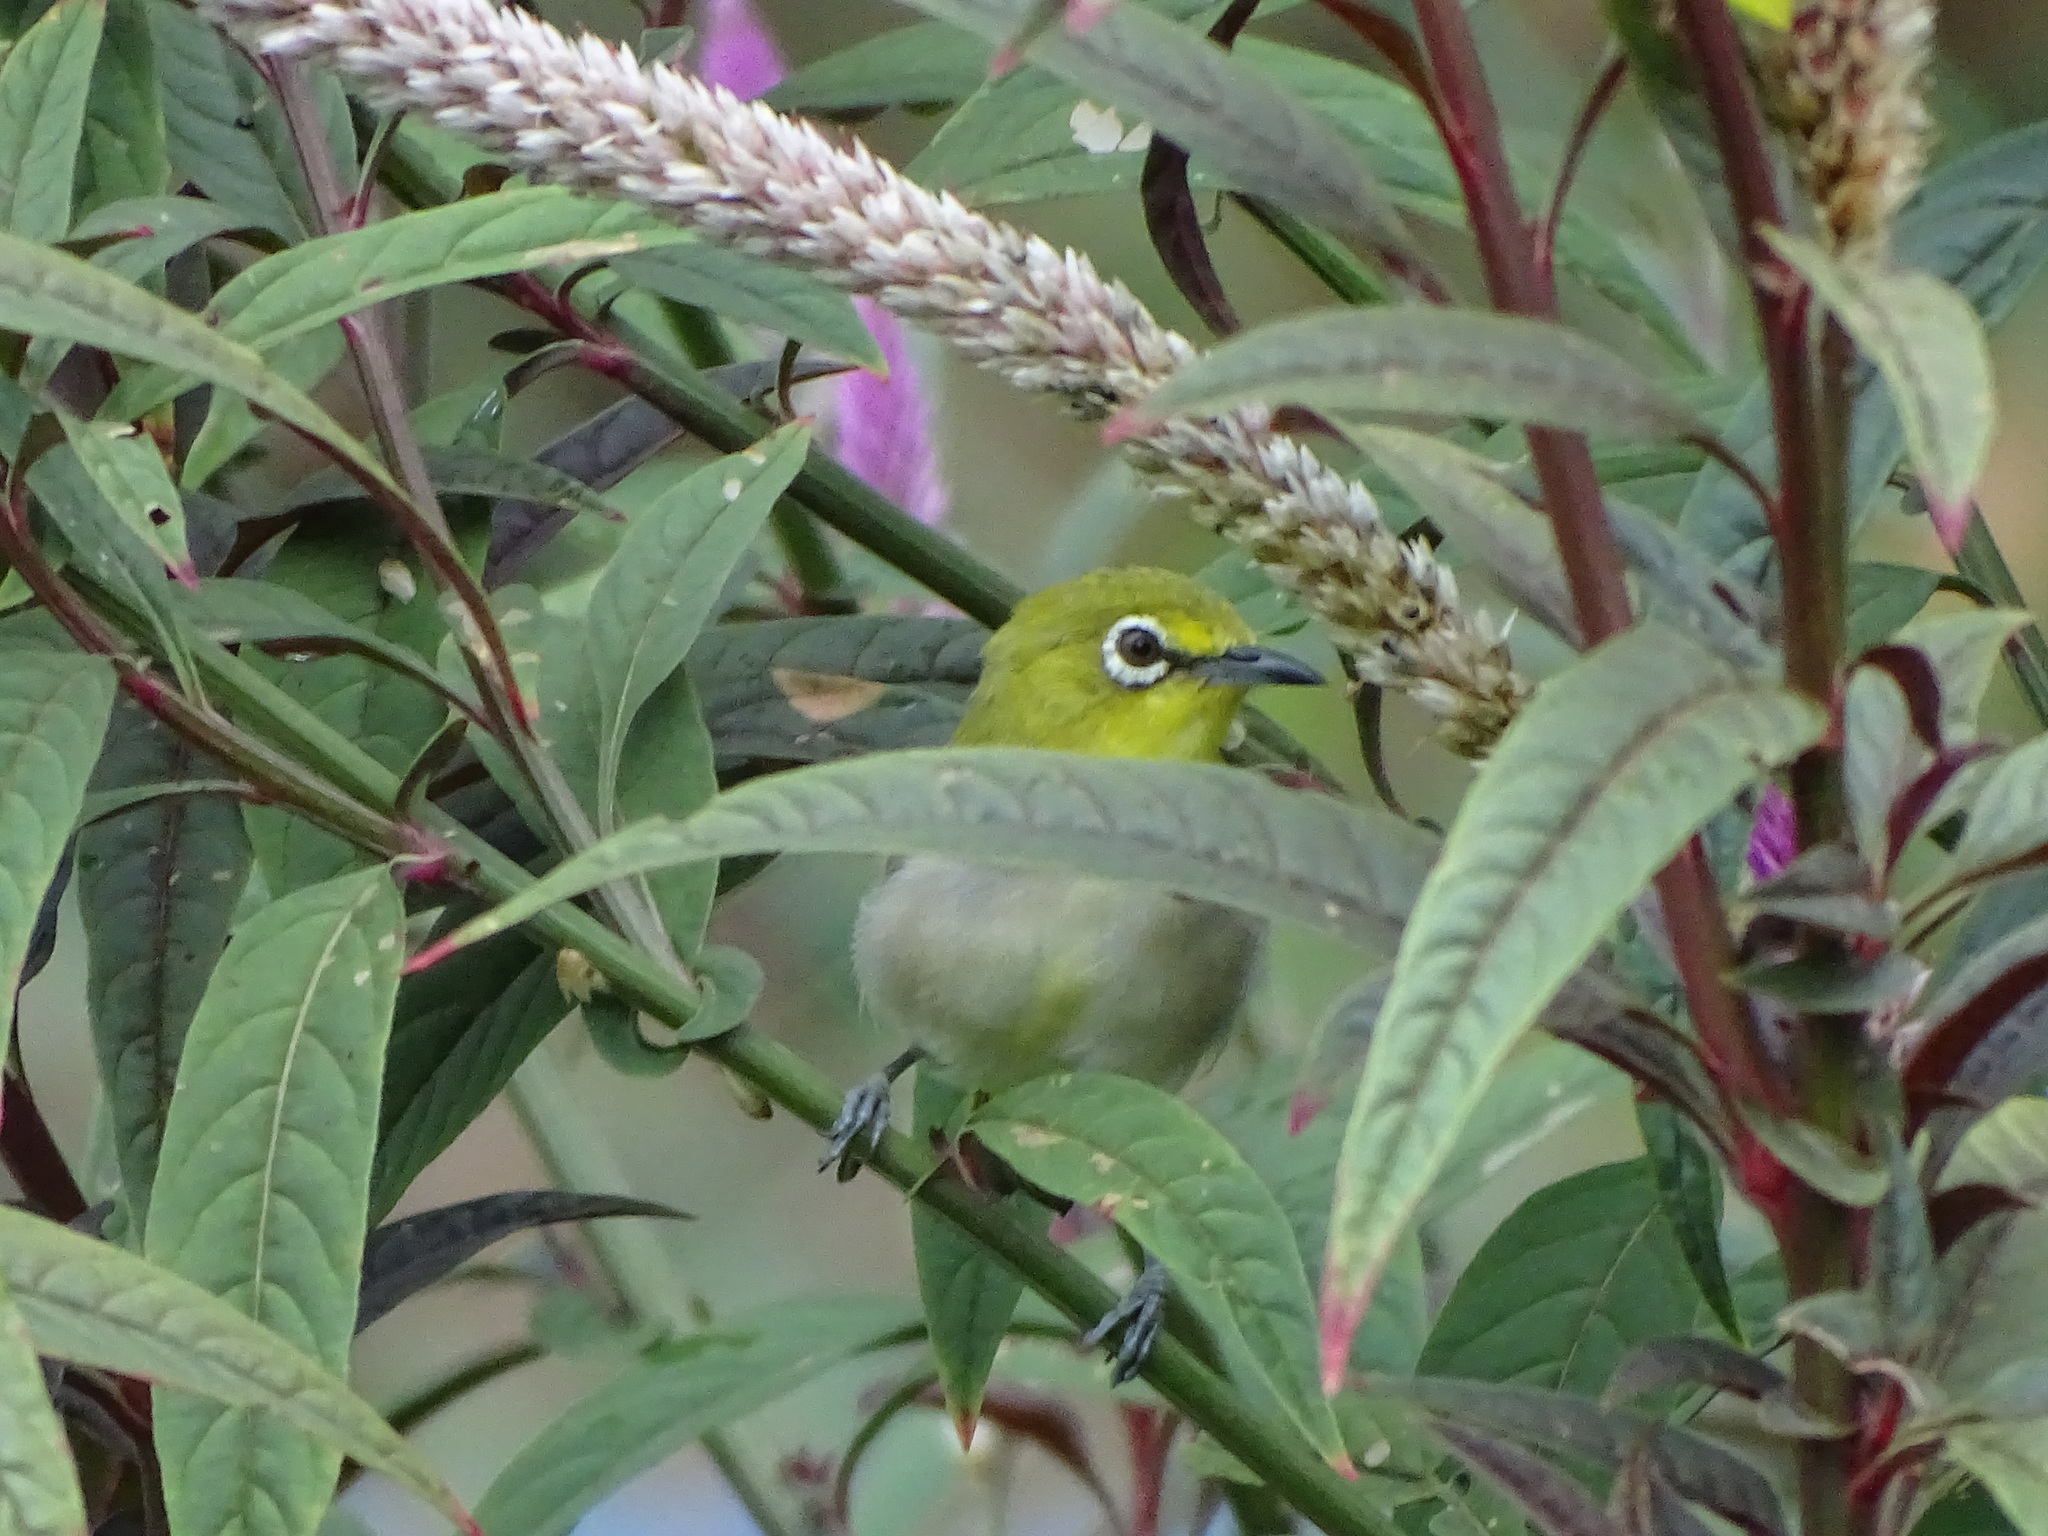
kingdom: Animalia
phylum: Chordata
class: Aves
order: Passeriformes
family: Zosteropidae
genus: Zosterops
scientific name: Zosterops simplex
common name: Swinhoe's white-eye
